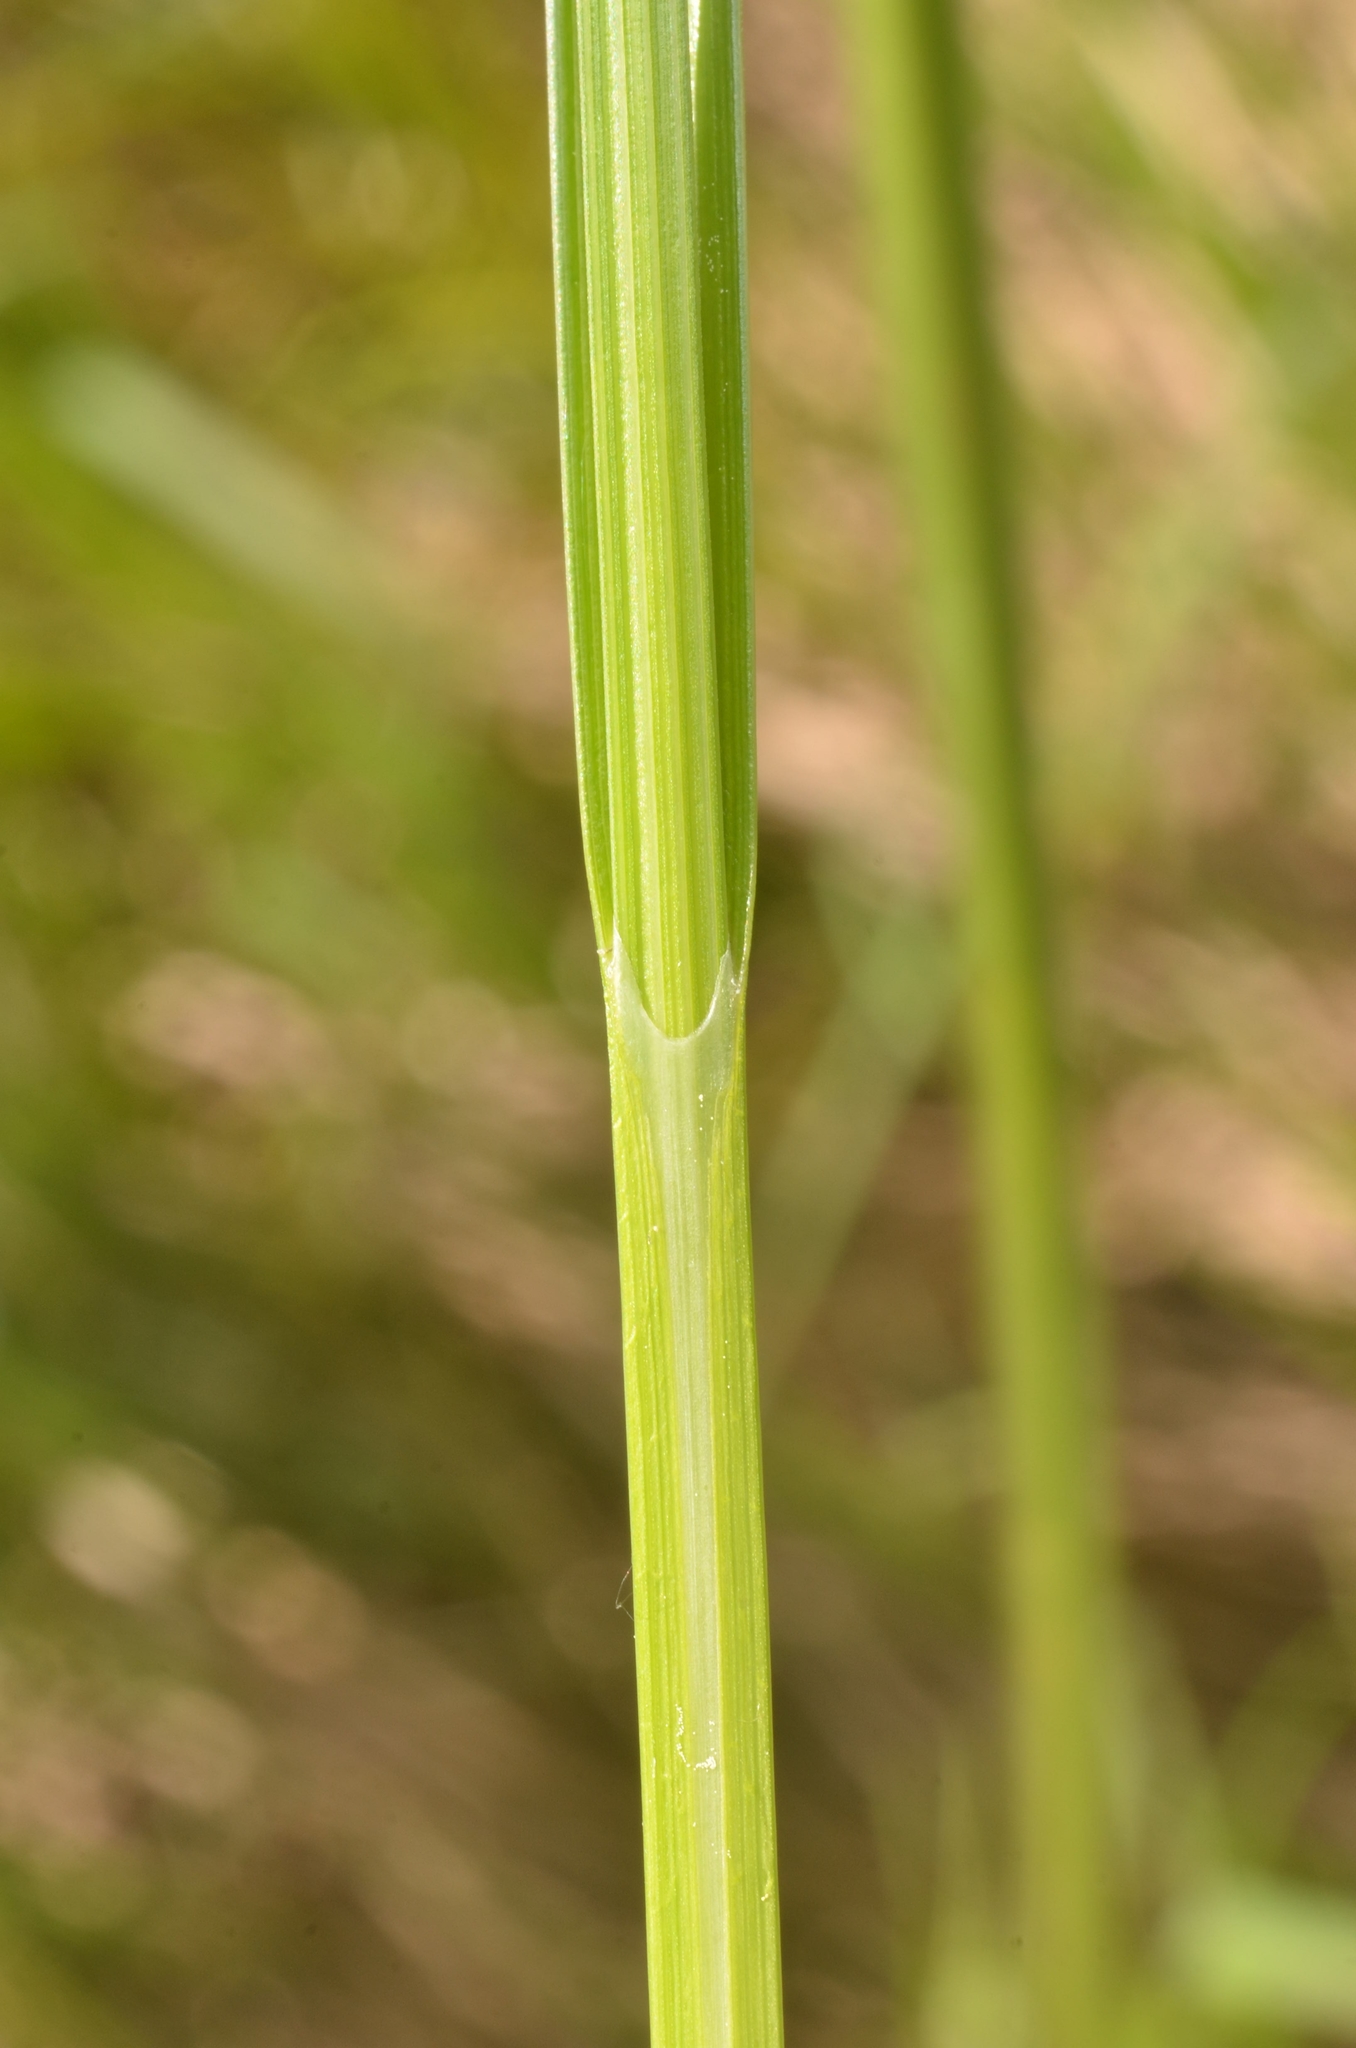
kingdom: Plantae
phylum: Tracheophyta
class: Liliopsida
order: Poales
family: Cyperaceae
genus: Carex
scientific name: Carex vesicaria
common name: Bladder-sedge
